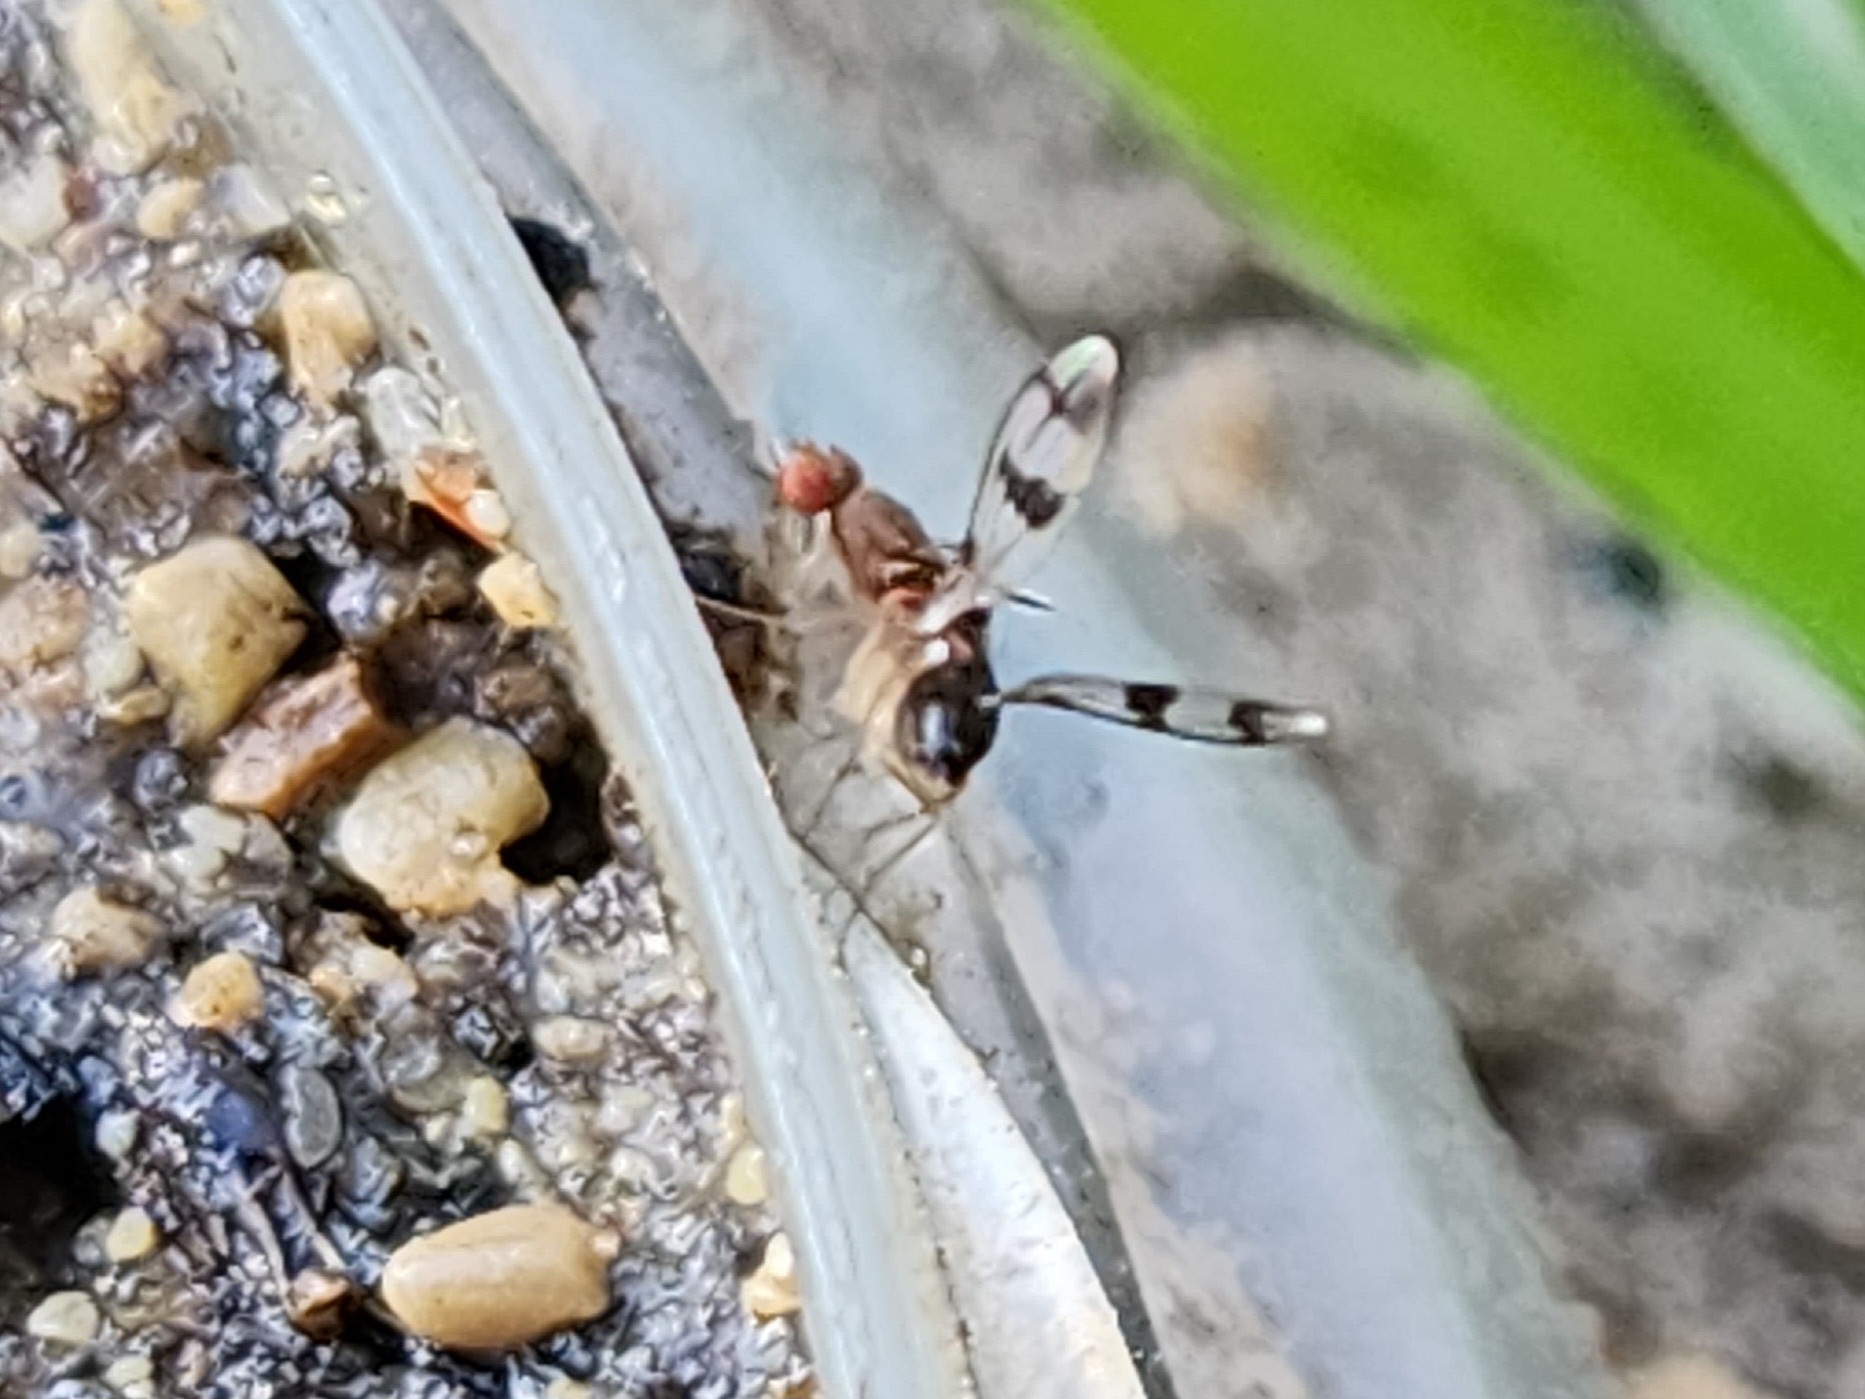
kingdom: Animalia
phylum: Arthropoda
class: Insecta
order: Diptera
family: Drosophilidae
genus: Chymomyza
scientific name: Chymomyza amoena
